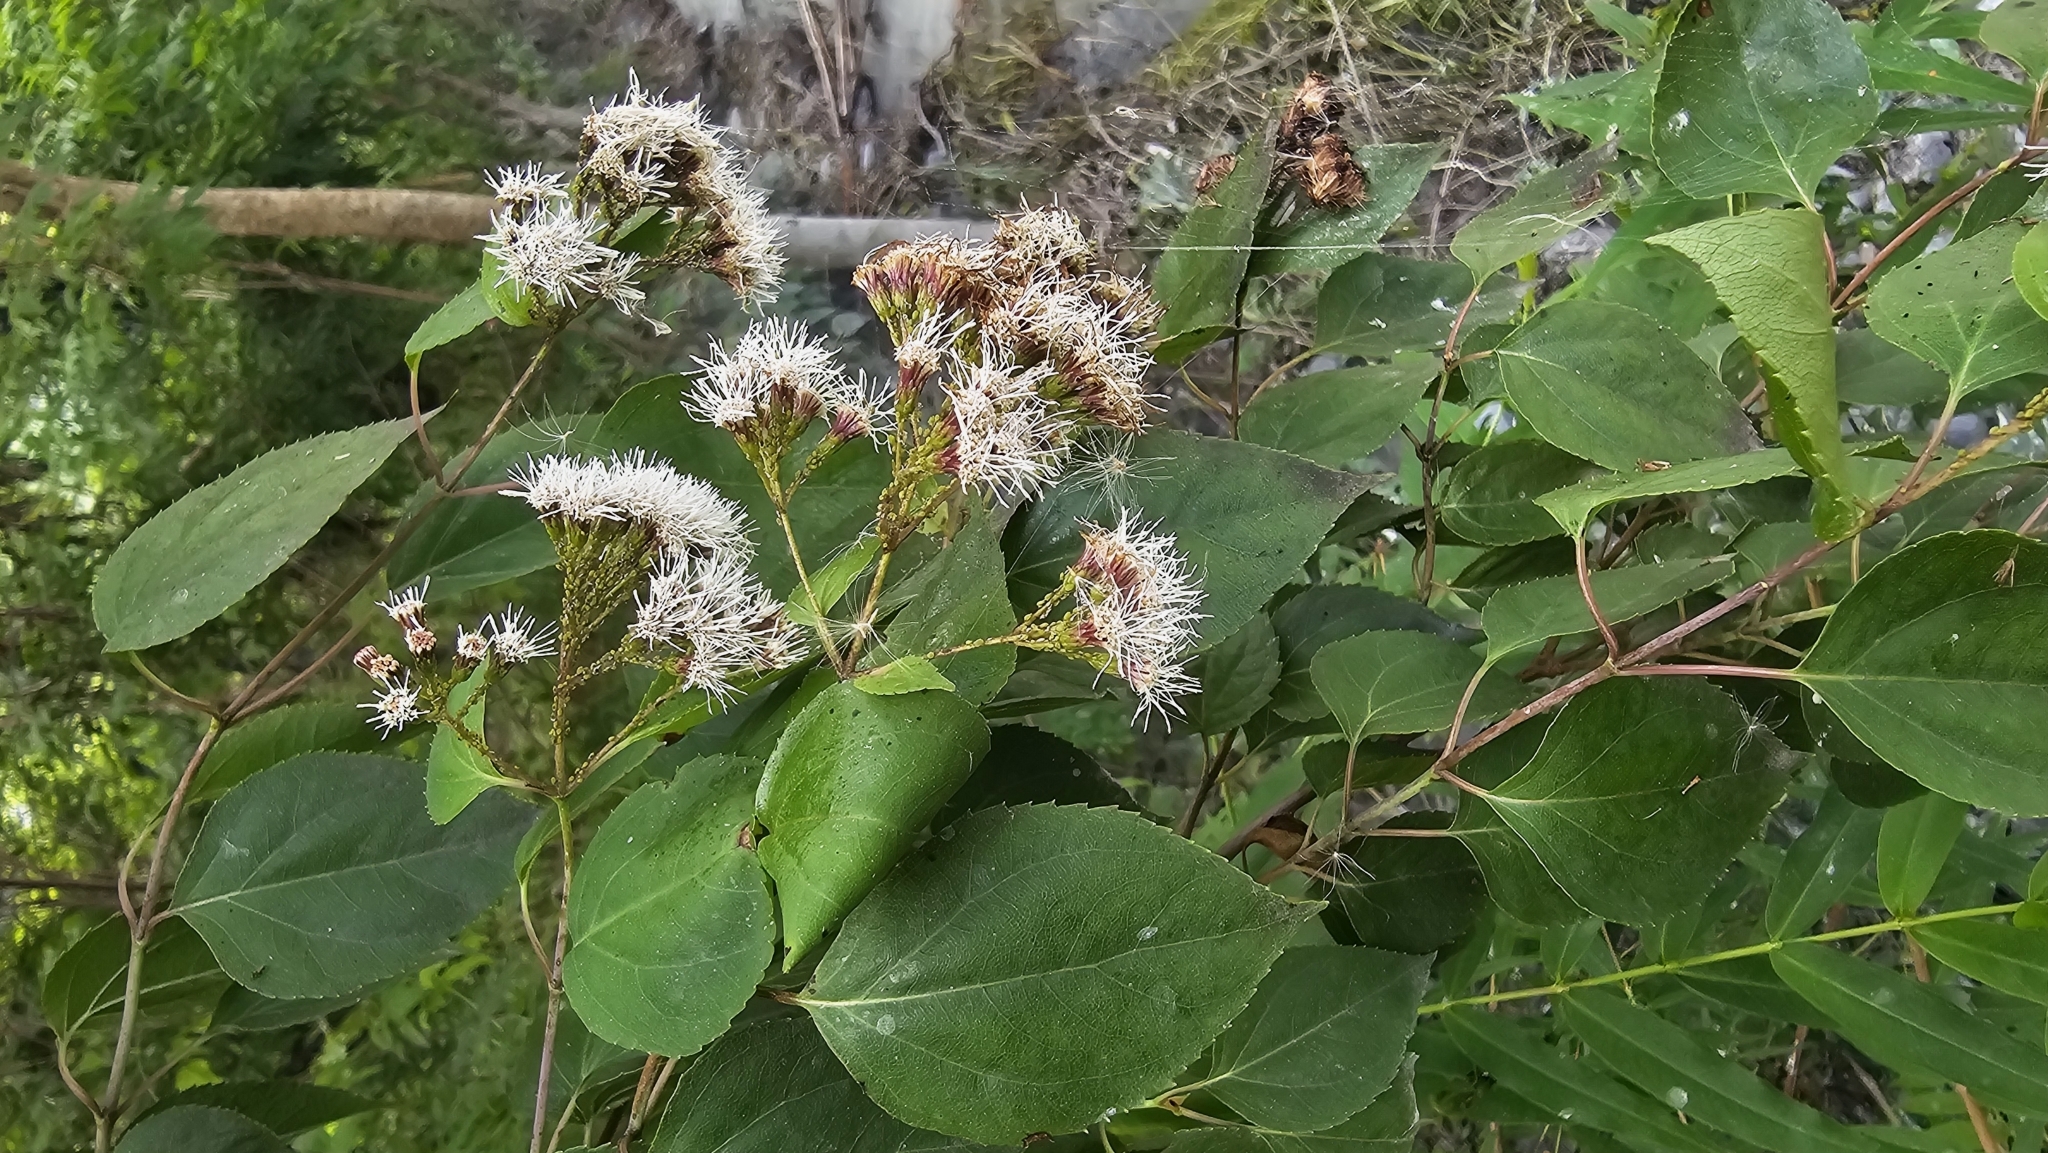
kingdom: Plantae
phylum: Tracheophyta
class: Magnoliopsida
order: Asterales
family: Asteraceae
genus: Kaunia
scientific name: Kaunia lasiophthalma
